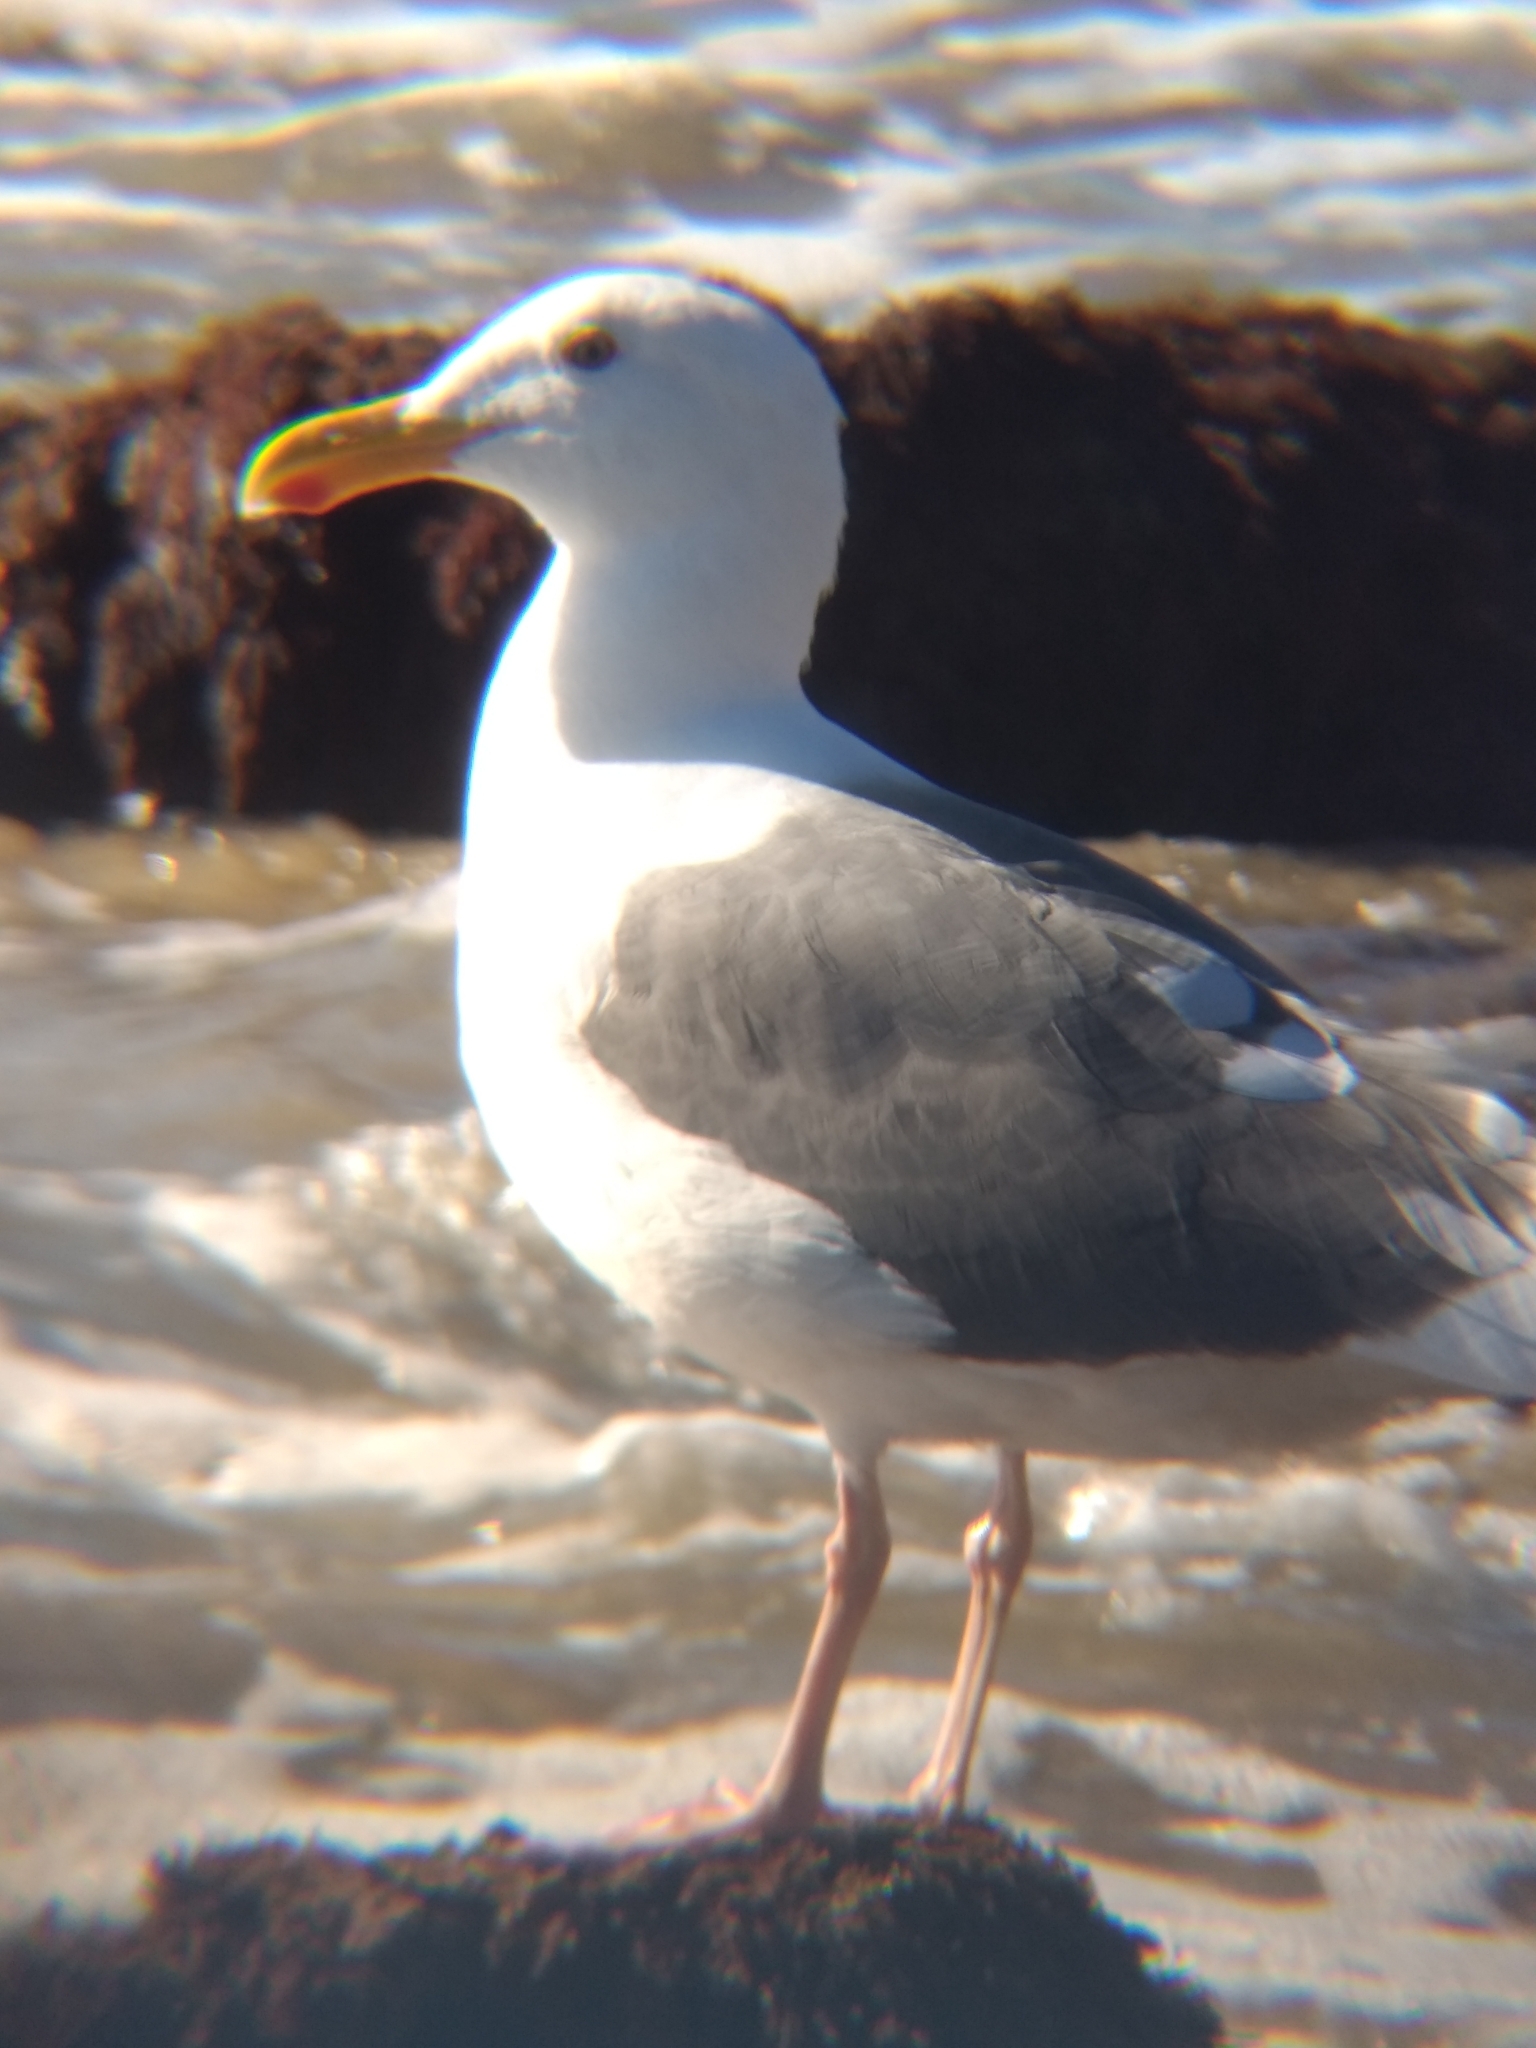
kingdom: Animalia
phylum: Chordata
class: Aves
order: Charadriiformes
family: Laridae
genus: Larus
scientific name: Larus occidentalis
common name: Western gull
